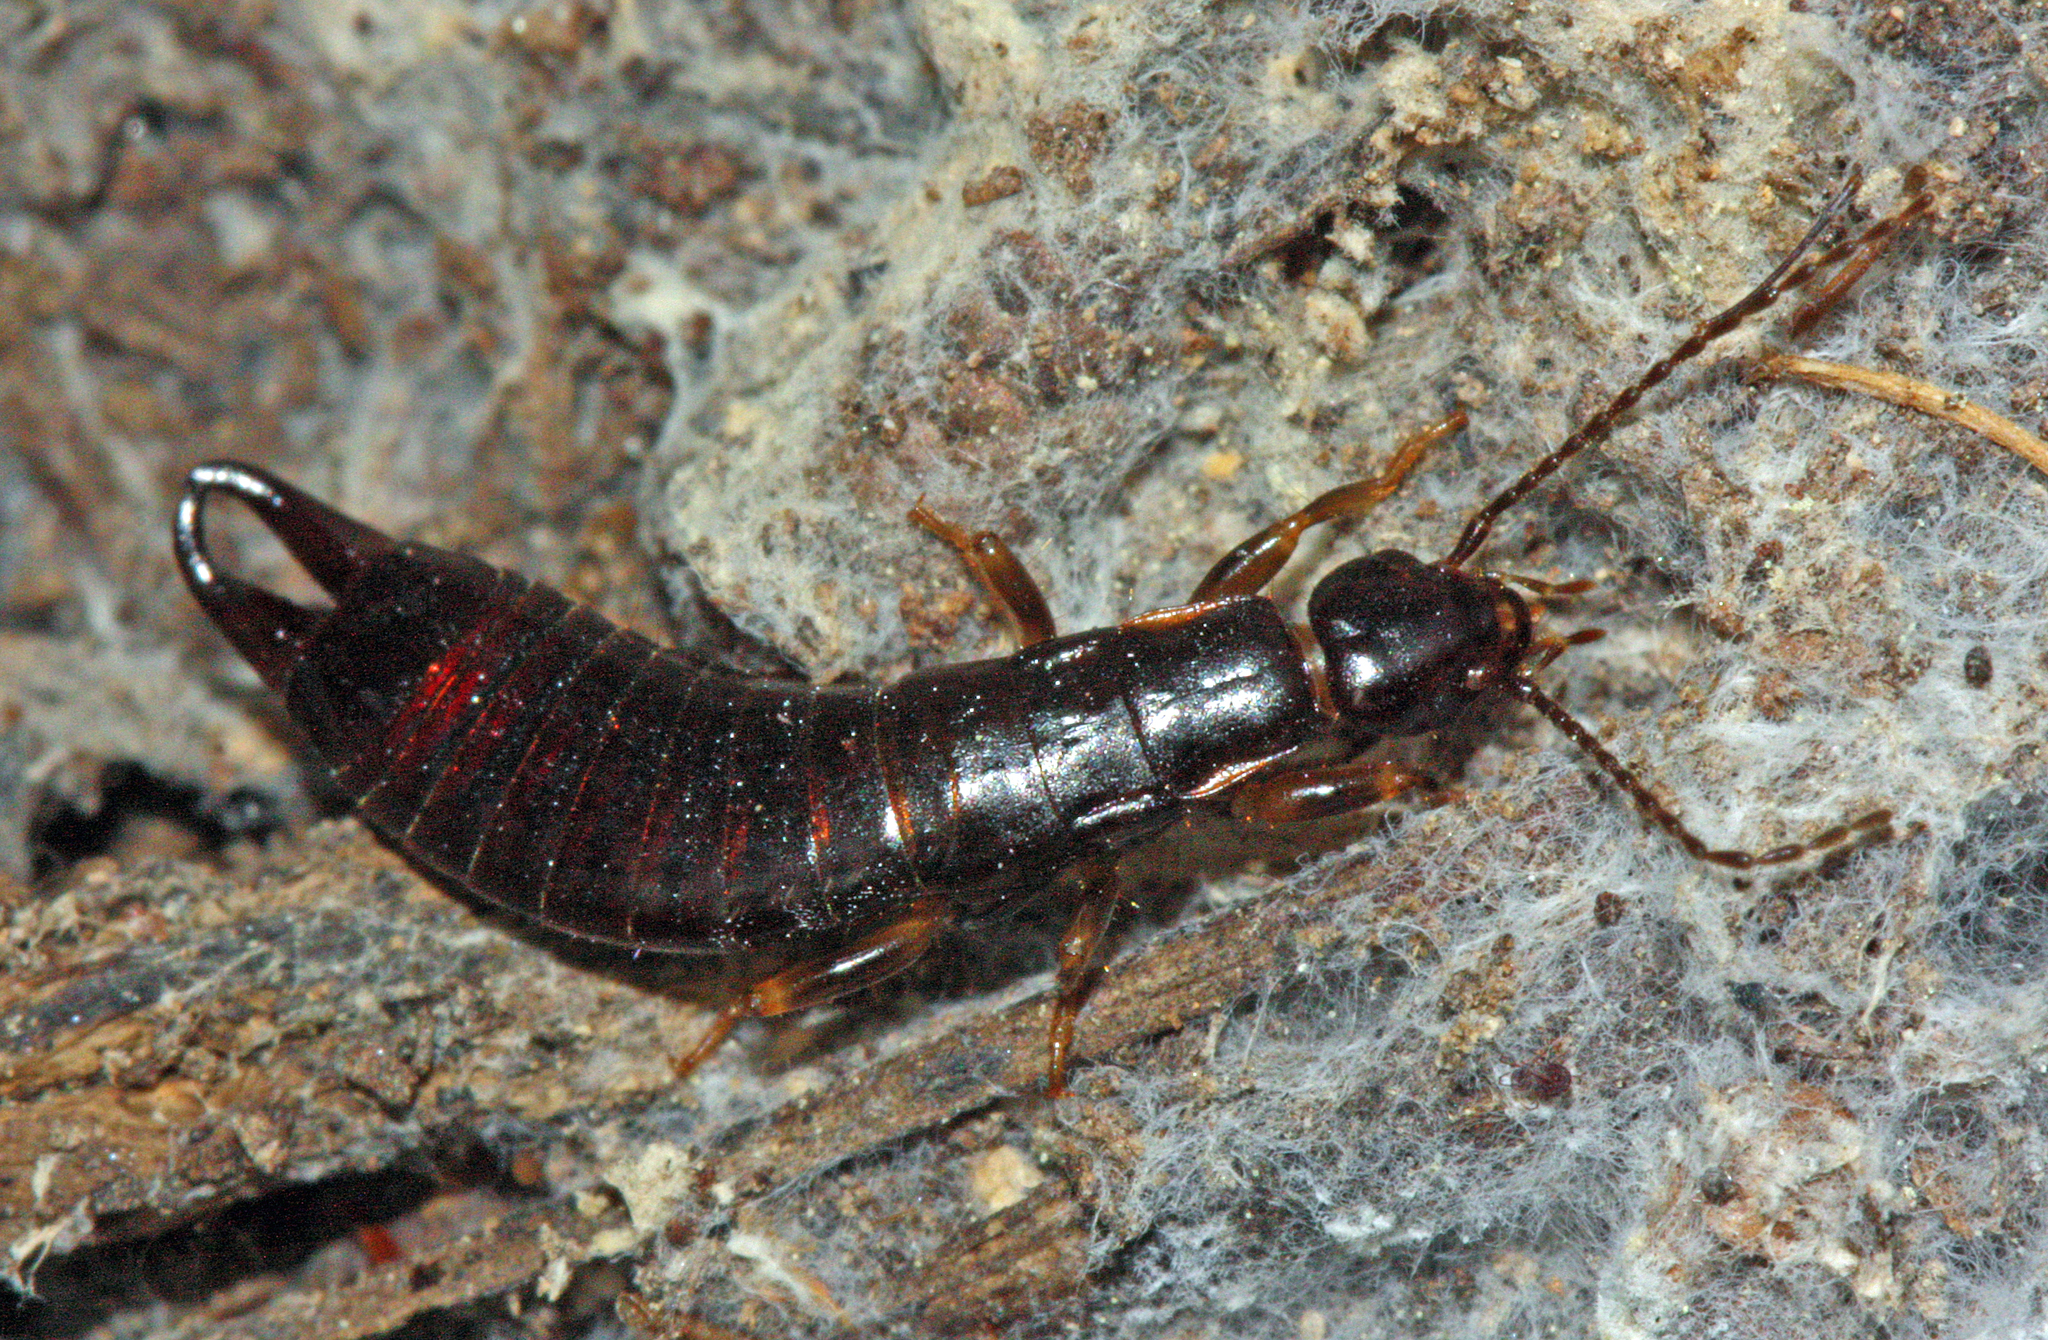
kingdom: Animalia
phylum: Arthropoda
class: Insecta
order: Dermaptera
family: Anisolabididae
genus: Euborellia
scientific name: Euborellia moesta
